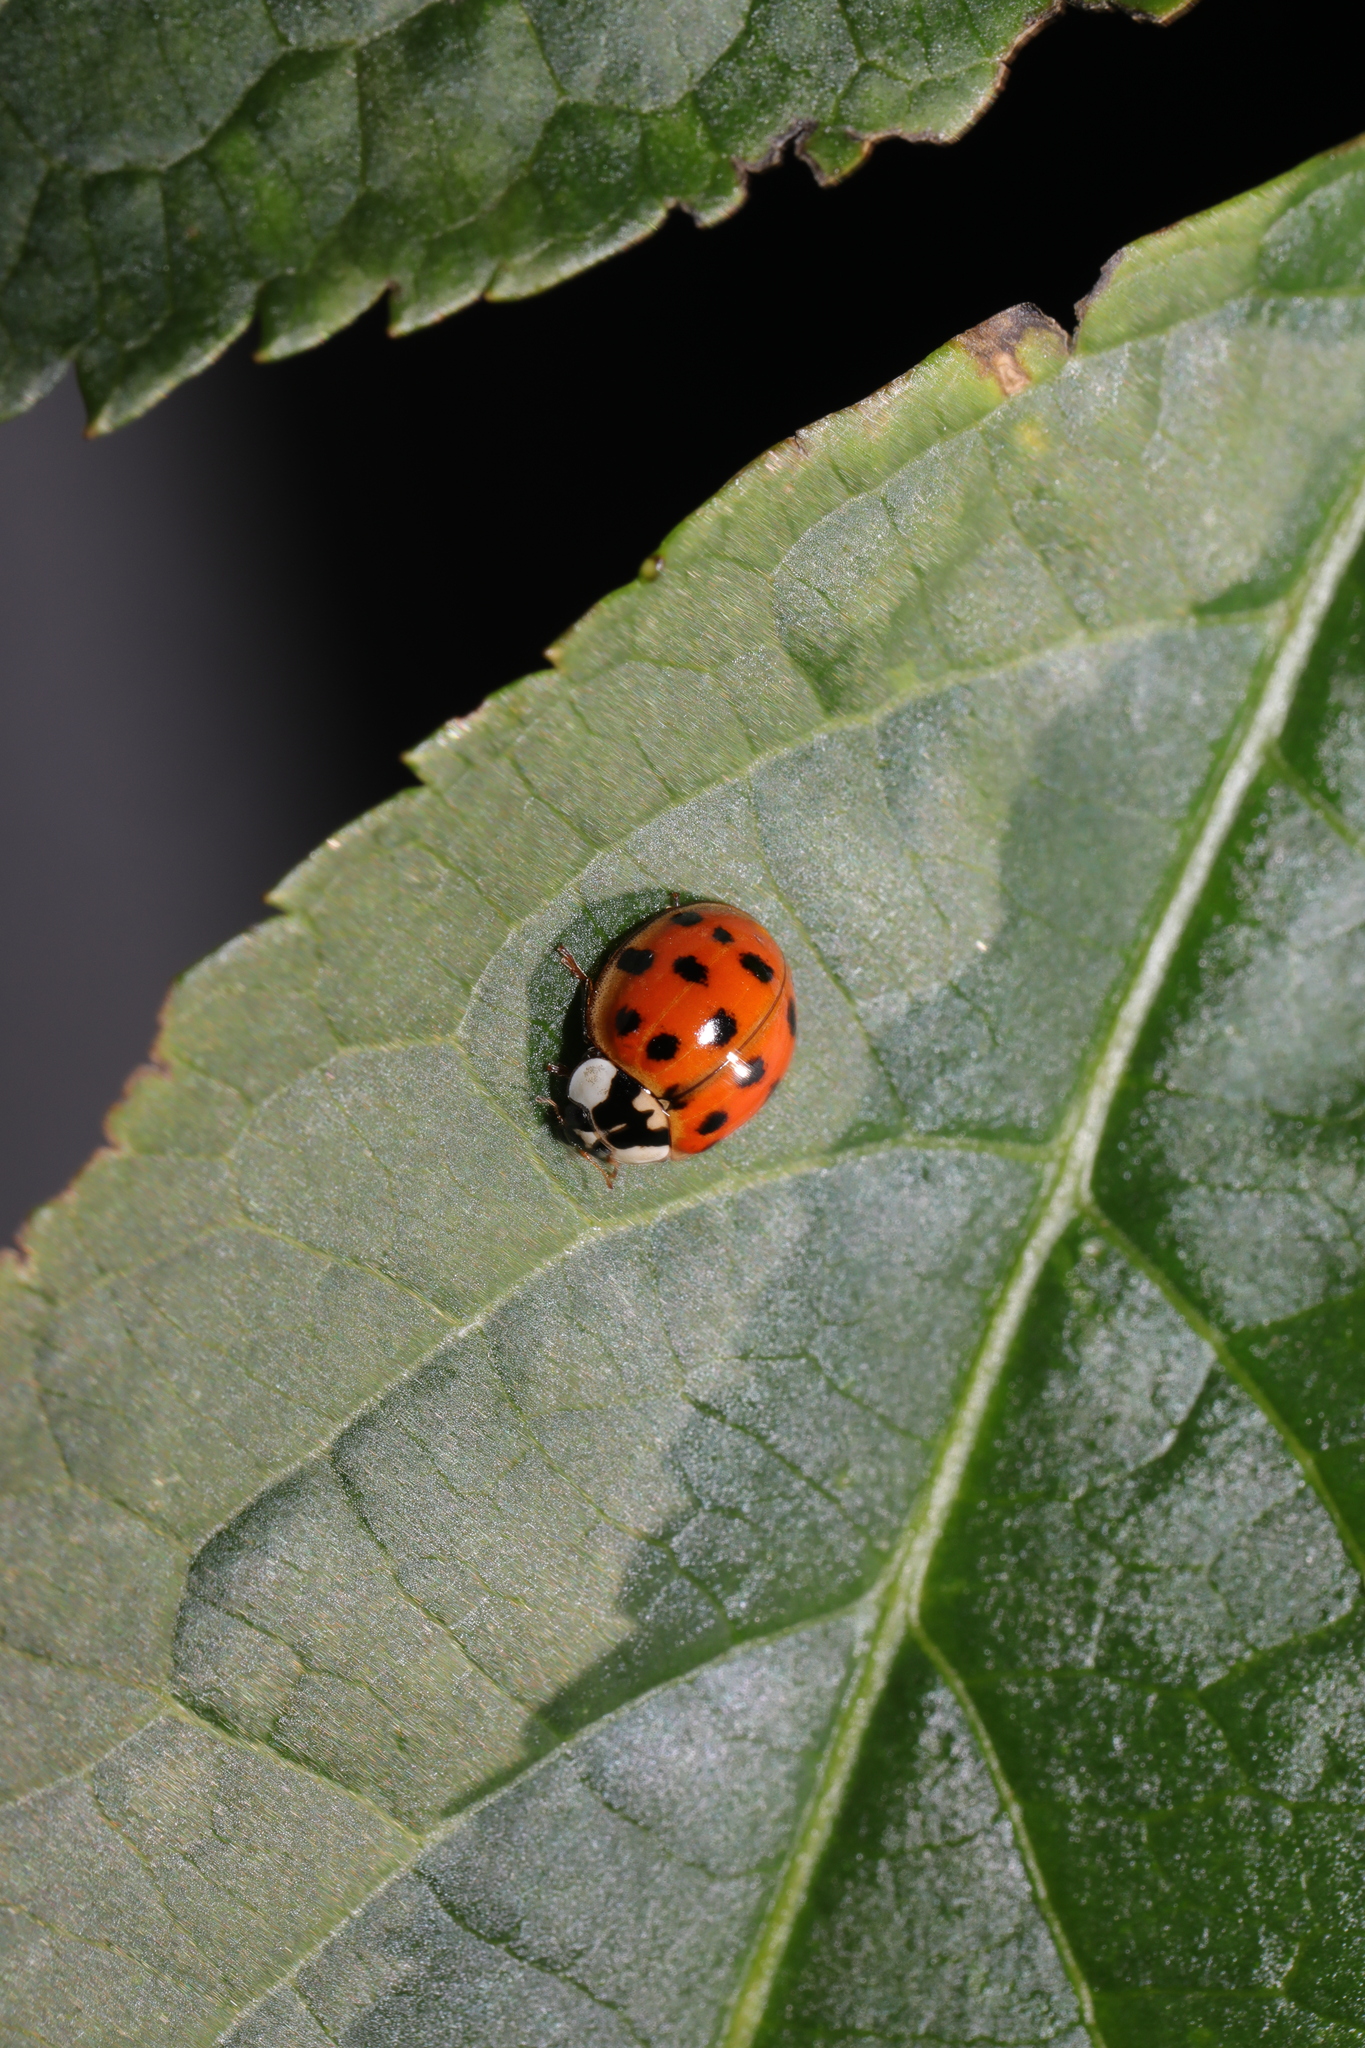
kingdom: Animalia
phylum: Arthropoda
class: Insecta
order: Coleoptera
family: Coccinellidae
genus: Harmonia
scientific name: Harmonia axyridis
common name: Harlequin ladybird
